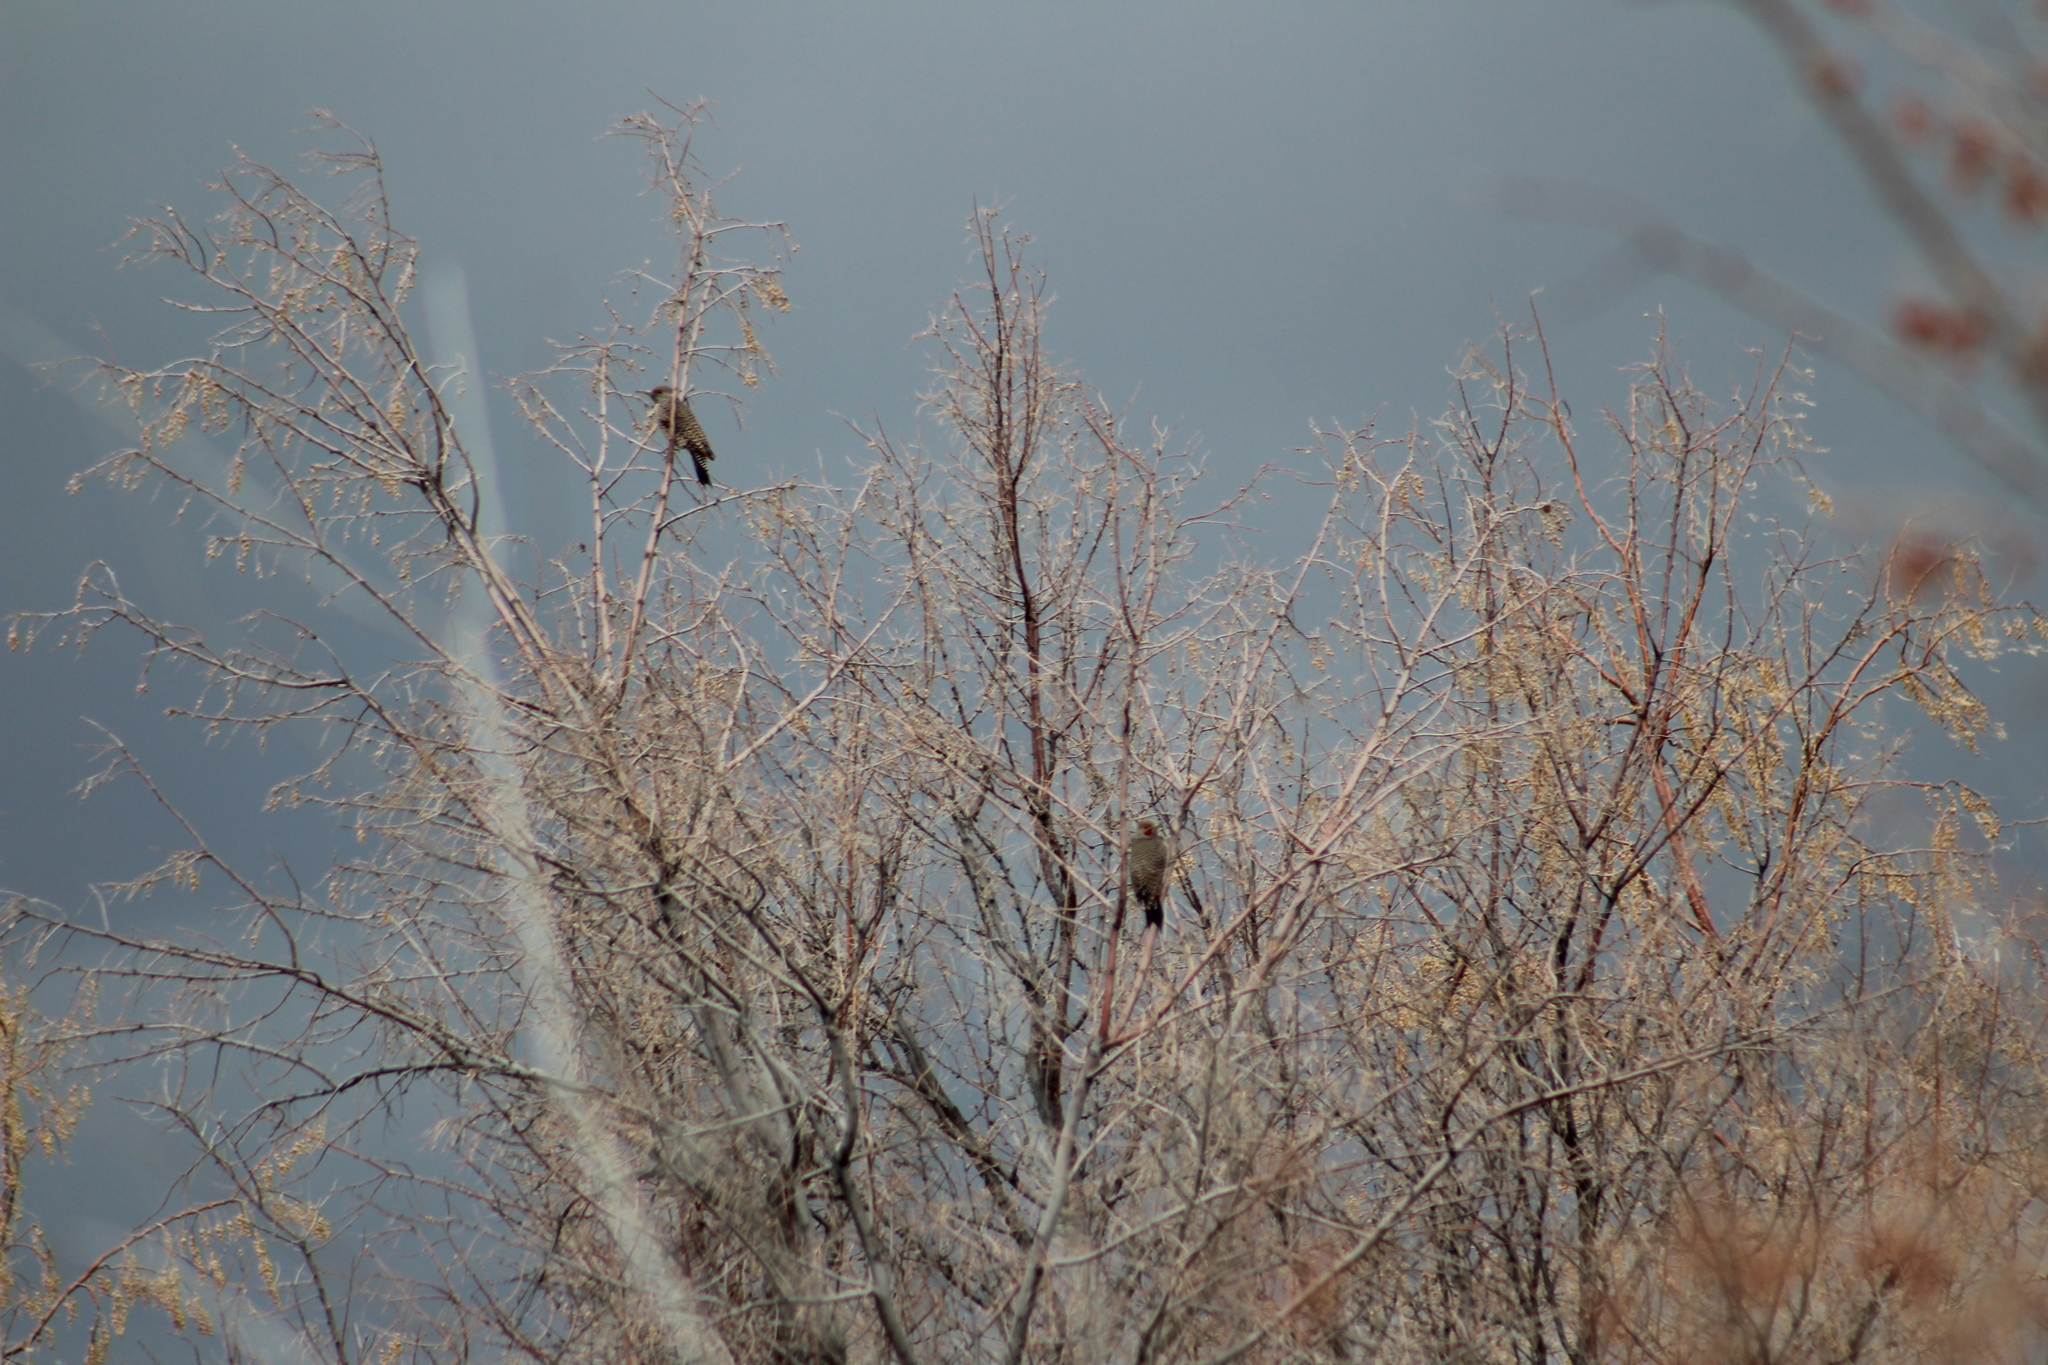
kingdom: Animalia
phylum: Chordata
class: Aves
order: Piciformes
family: Picidae
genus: Colaptes
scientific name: Colaptes auratus
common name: Northern flicker
